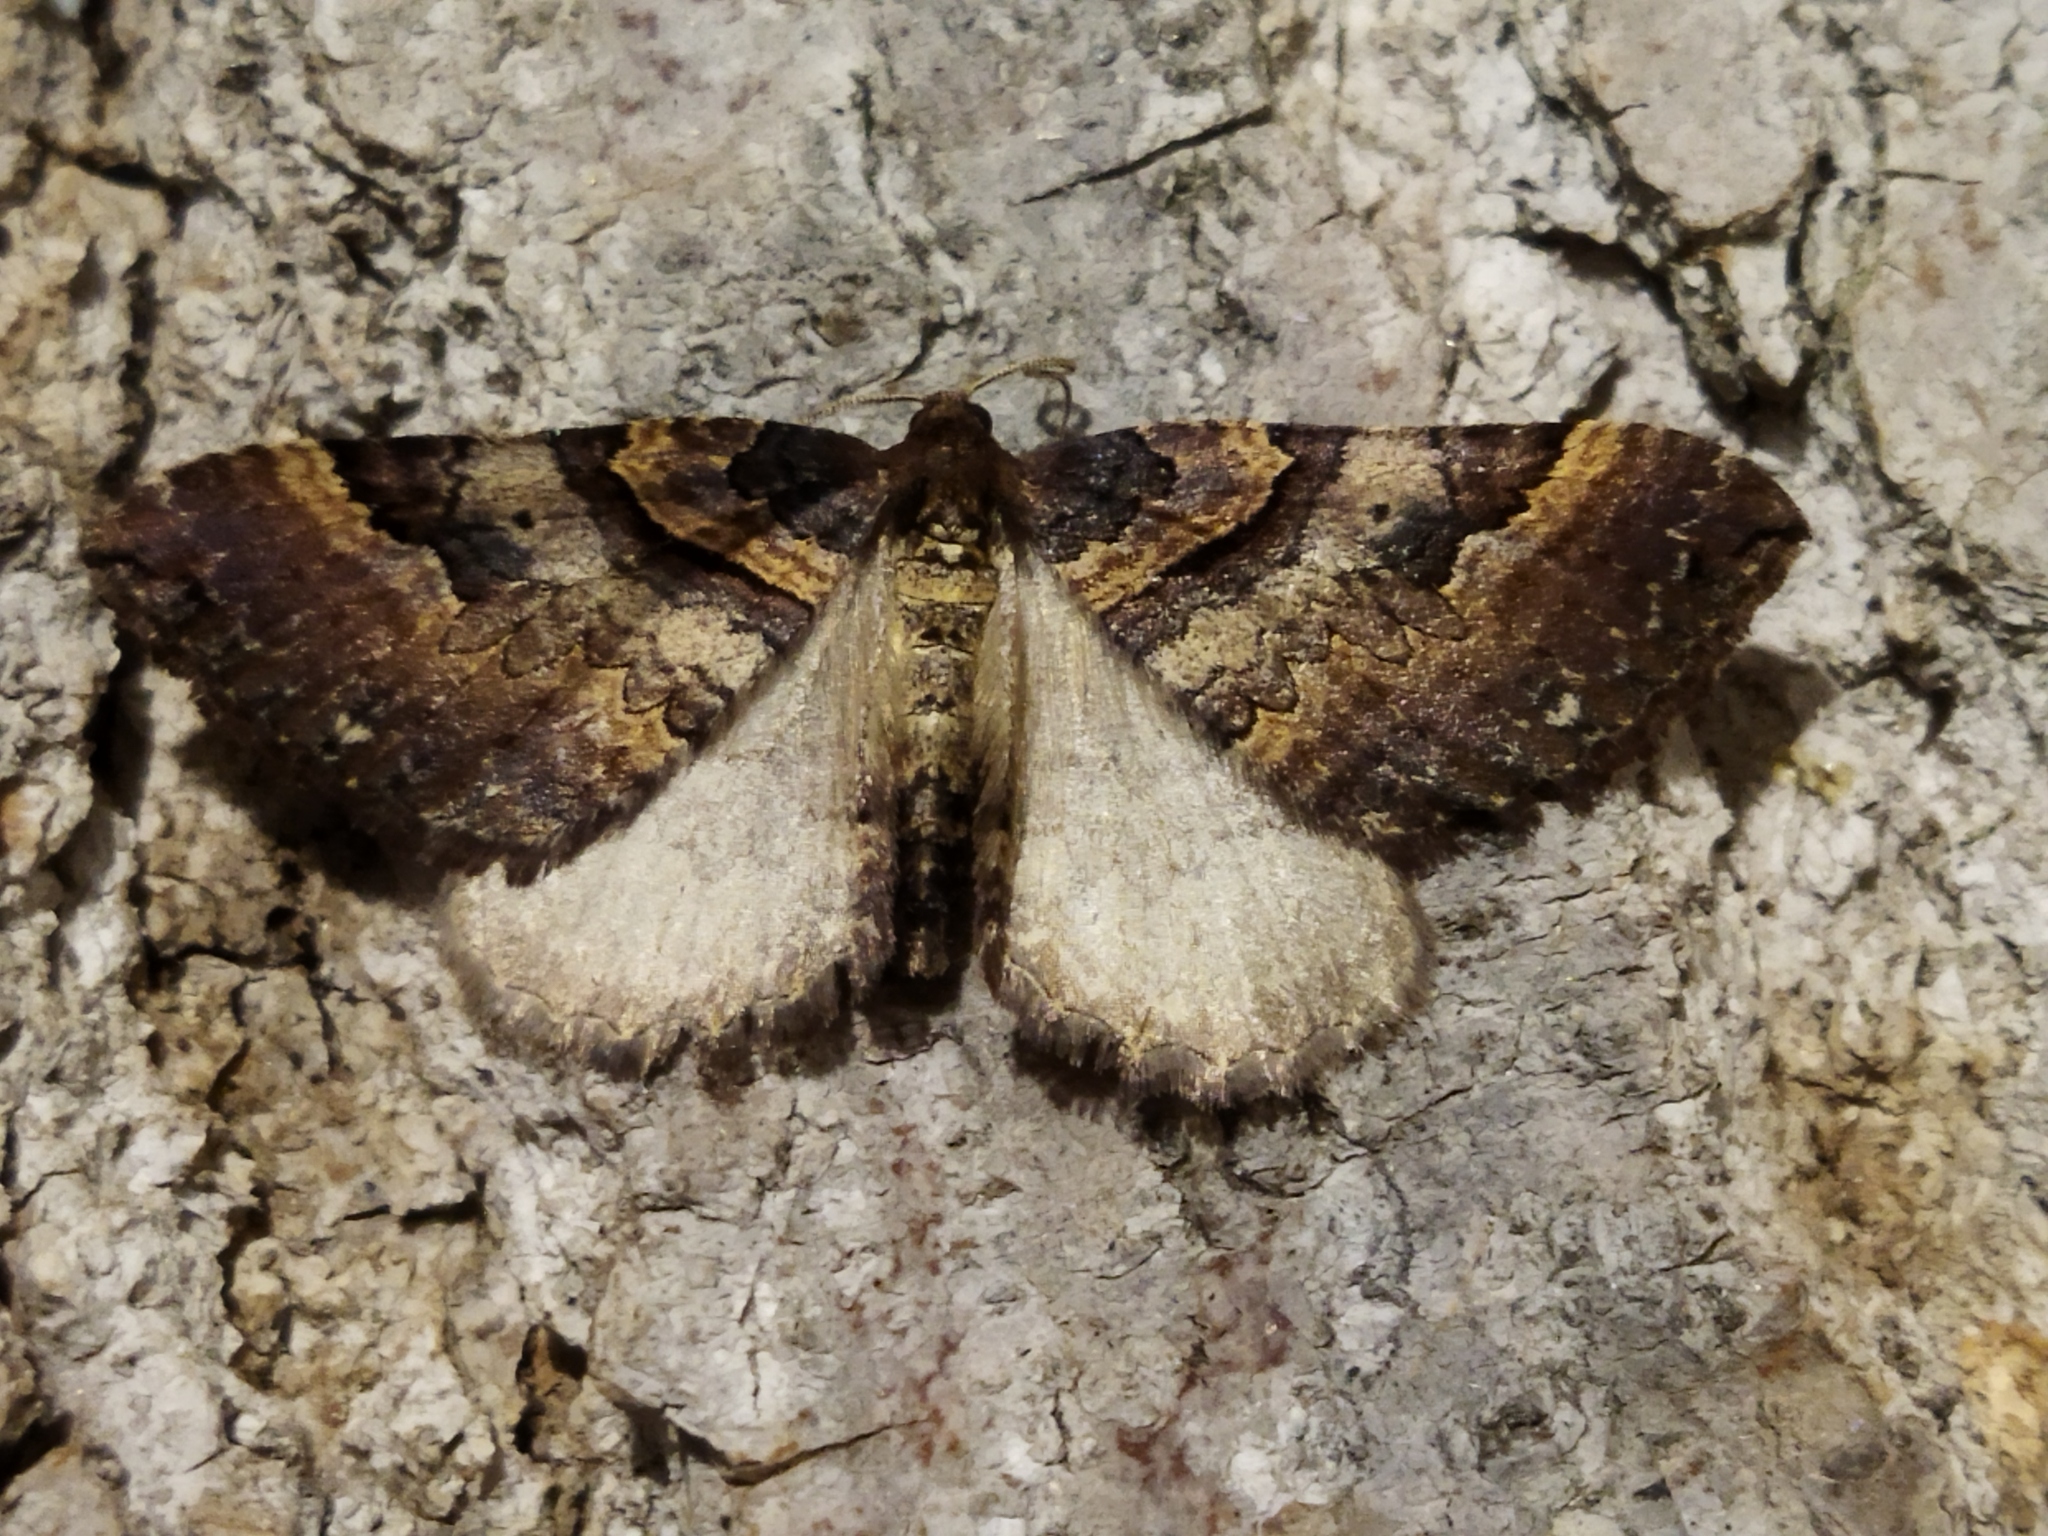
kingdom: Animalia
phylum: Arthropoda
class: Insecta
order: Lepidoptera
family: Geometridae
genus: Anticlea
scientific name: Anticlea badiata
